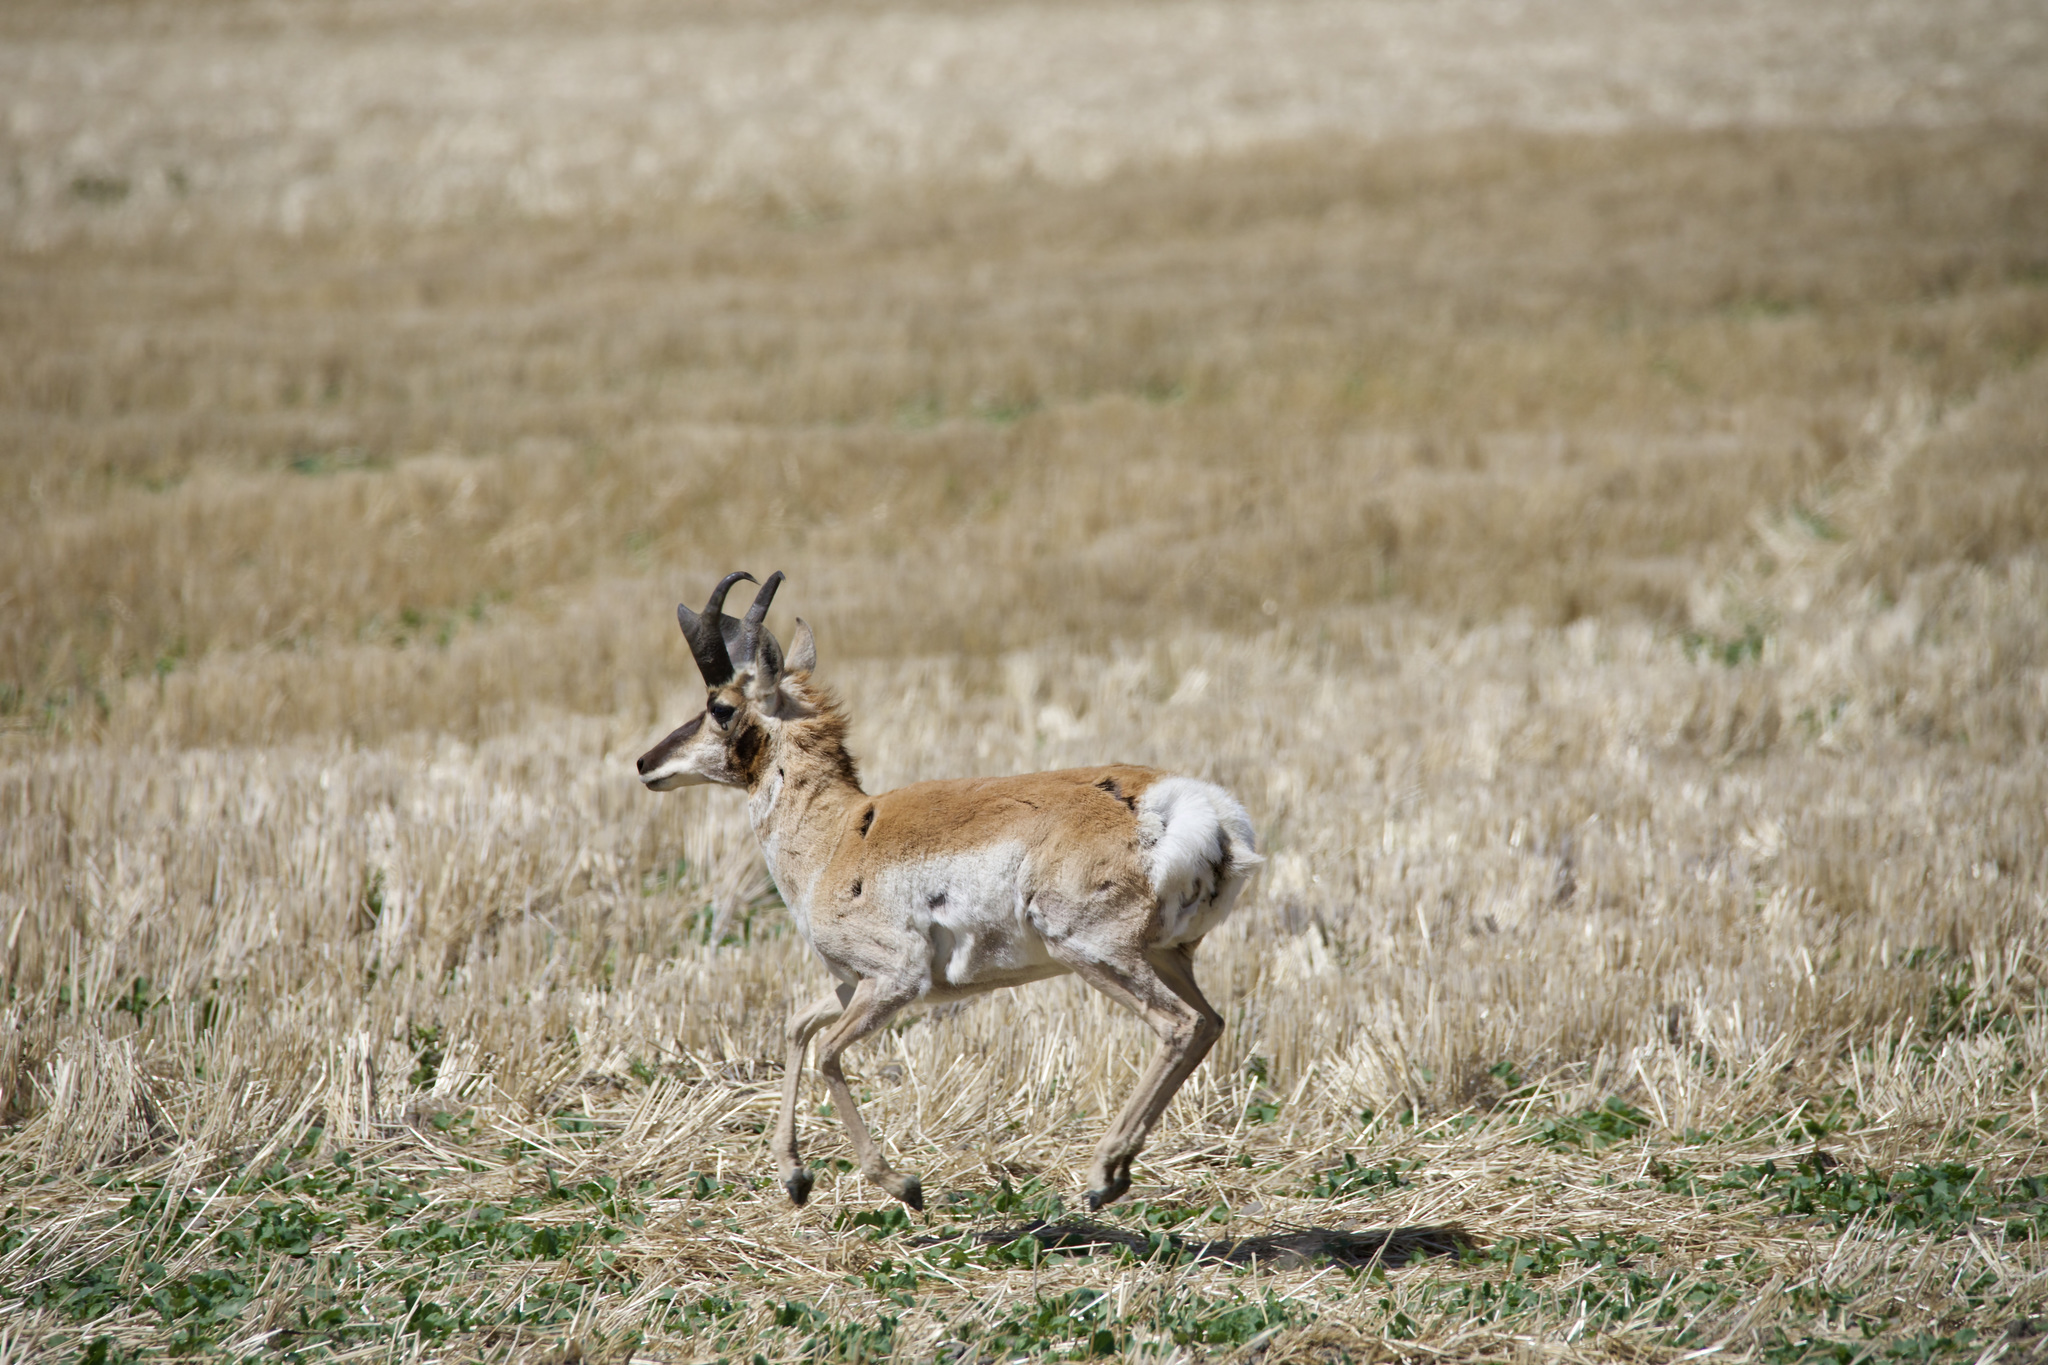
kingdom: Animalia
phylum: Chordata
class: Mammalia
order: Artiodactyla
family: Antilocapridae
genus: Antilocapra
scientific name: Antilocapra americana
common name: Pronghorn
